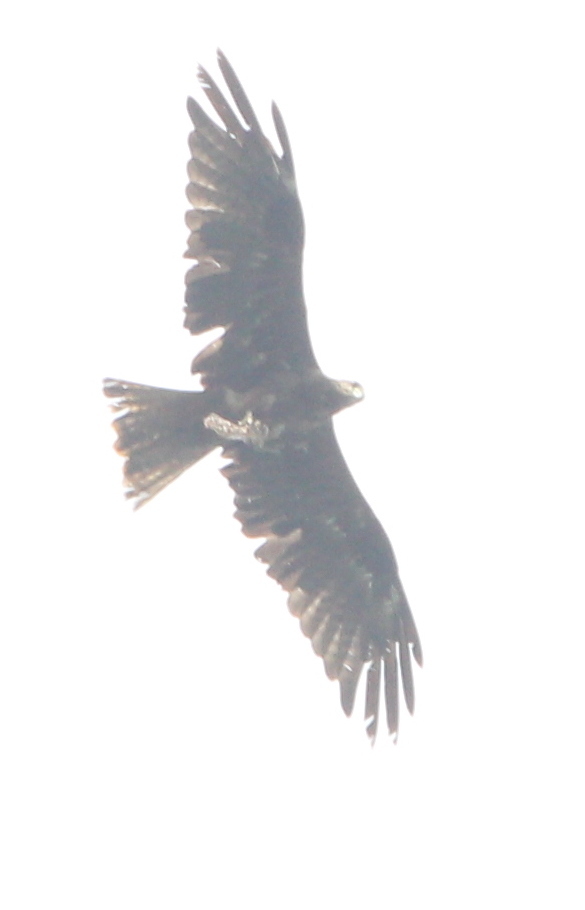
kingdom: Animalia
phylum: Chordata
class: Aves
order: Accipitriformes
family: Accipitridae
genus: Milvus
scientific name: Milvus migrans
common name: Black kite
